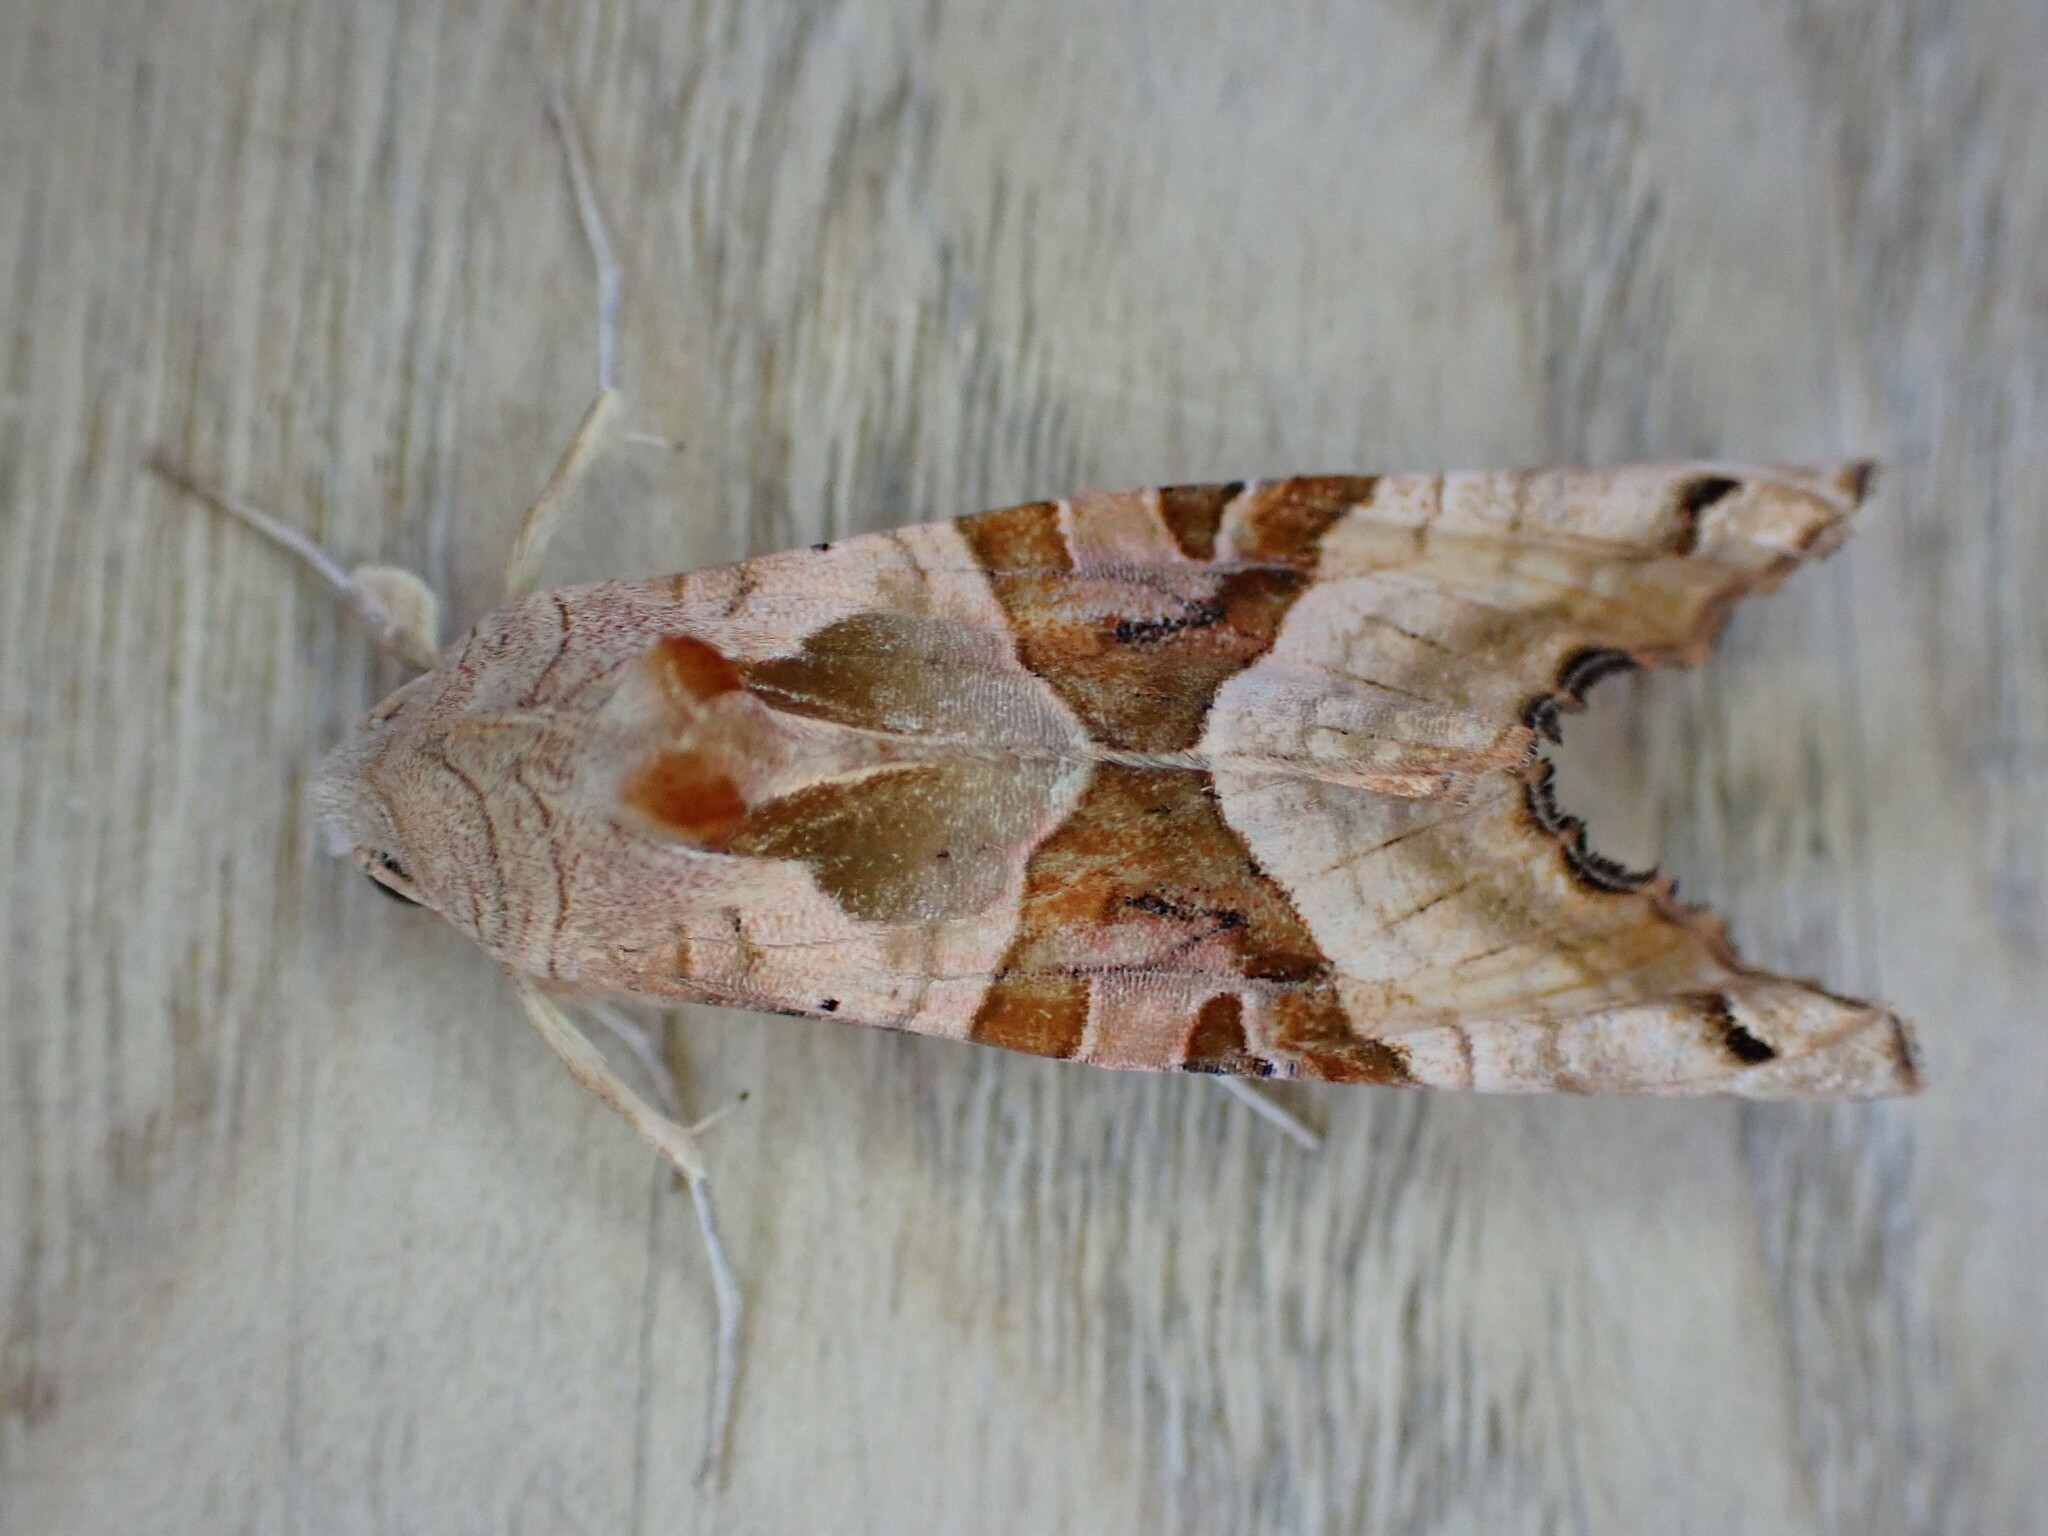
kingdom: Animalia
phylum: Arthropoda
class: Insecta
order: Lepidoptera
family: Noctuidae
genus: Phlogophora
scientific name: Phlogophora meticulosa
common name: Angle shades
